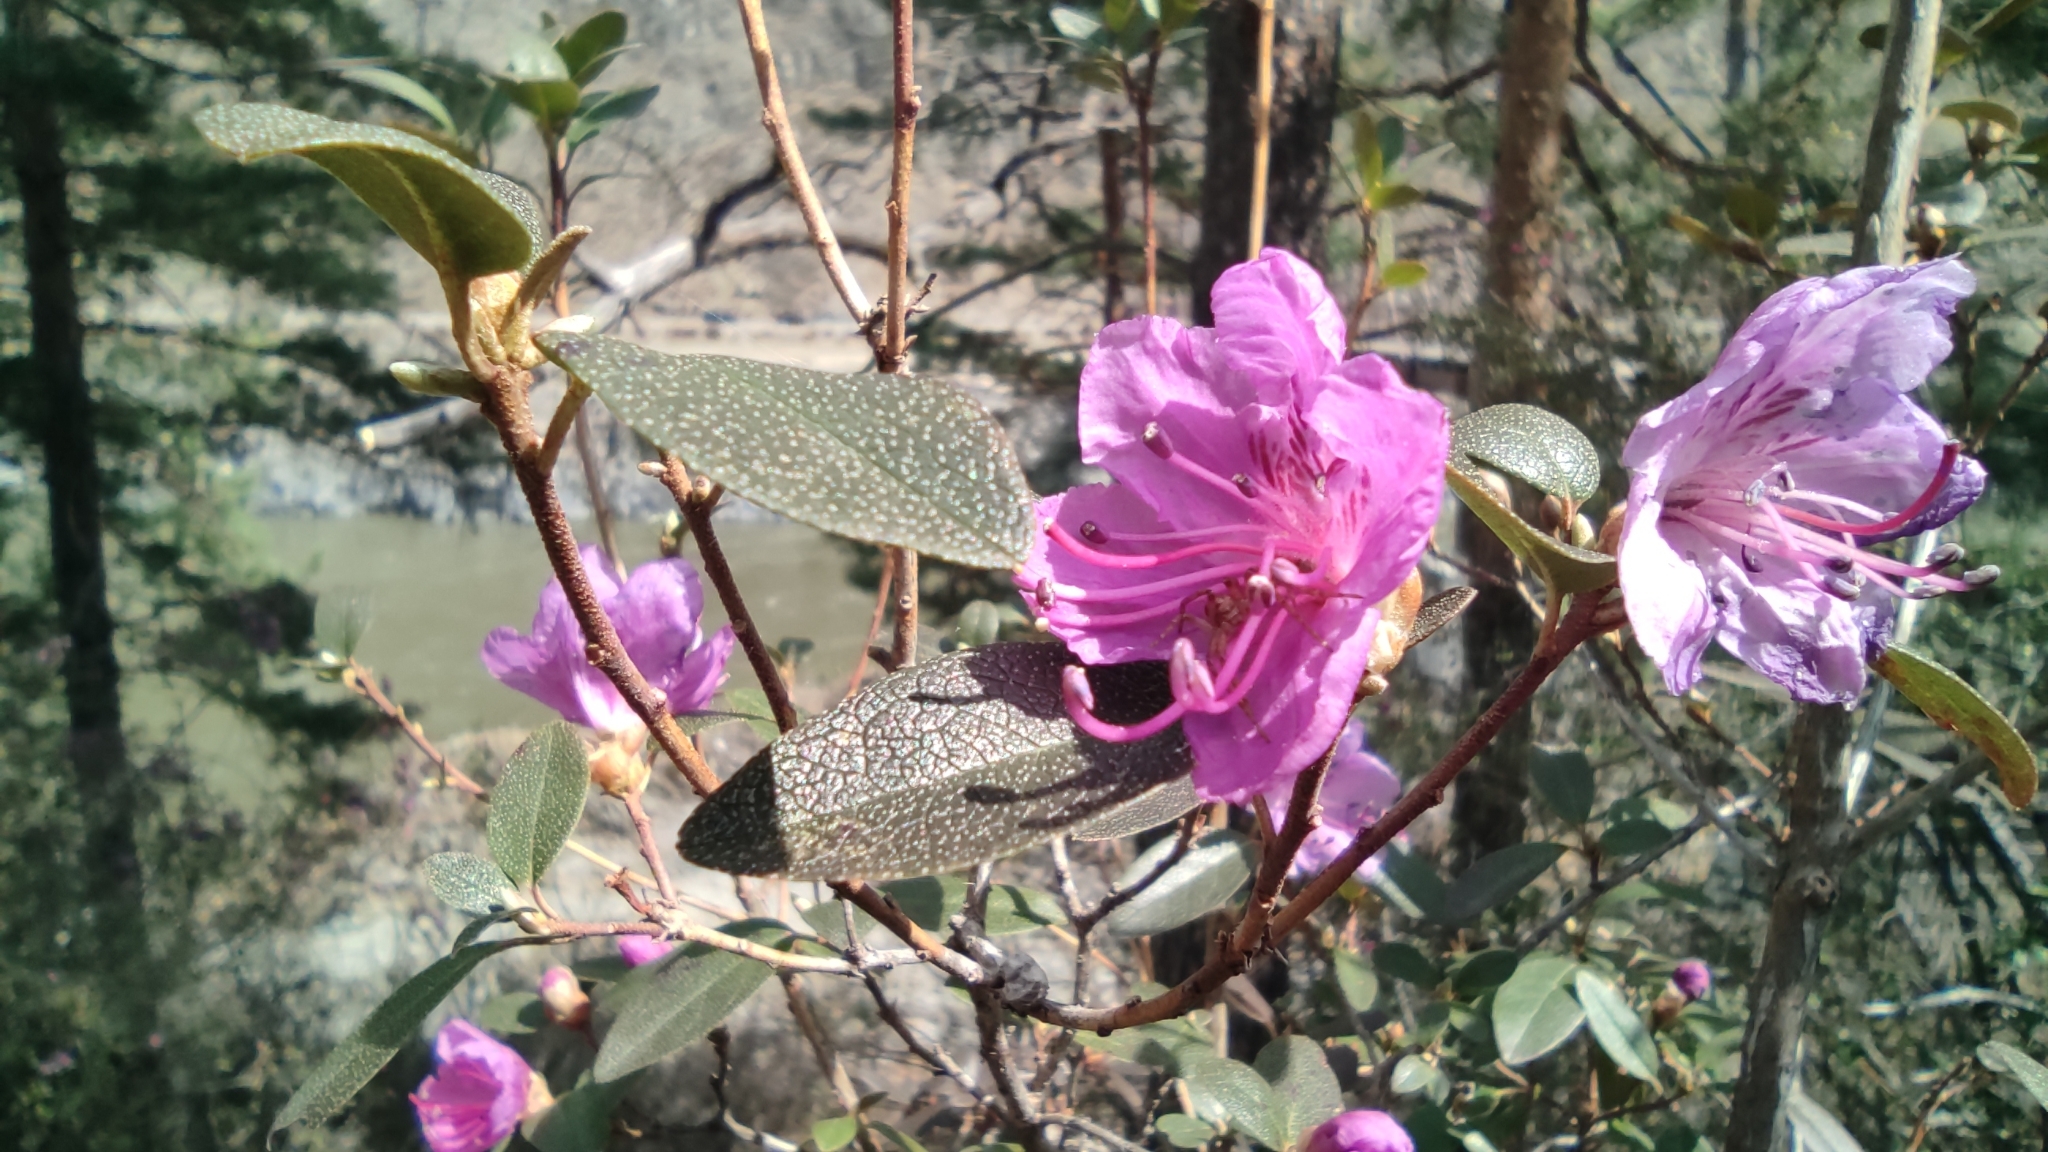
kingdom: Plantae
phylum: Tracheophyta
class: Magnoliopsida
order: Ericales
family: Ericaceae
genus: Rhododendron
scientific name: Rhododendron dauricum
